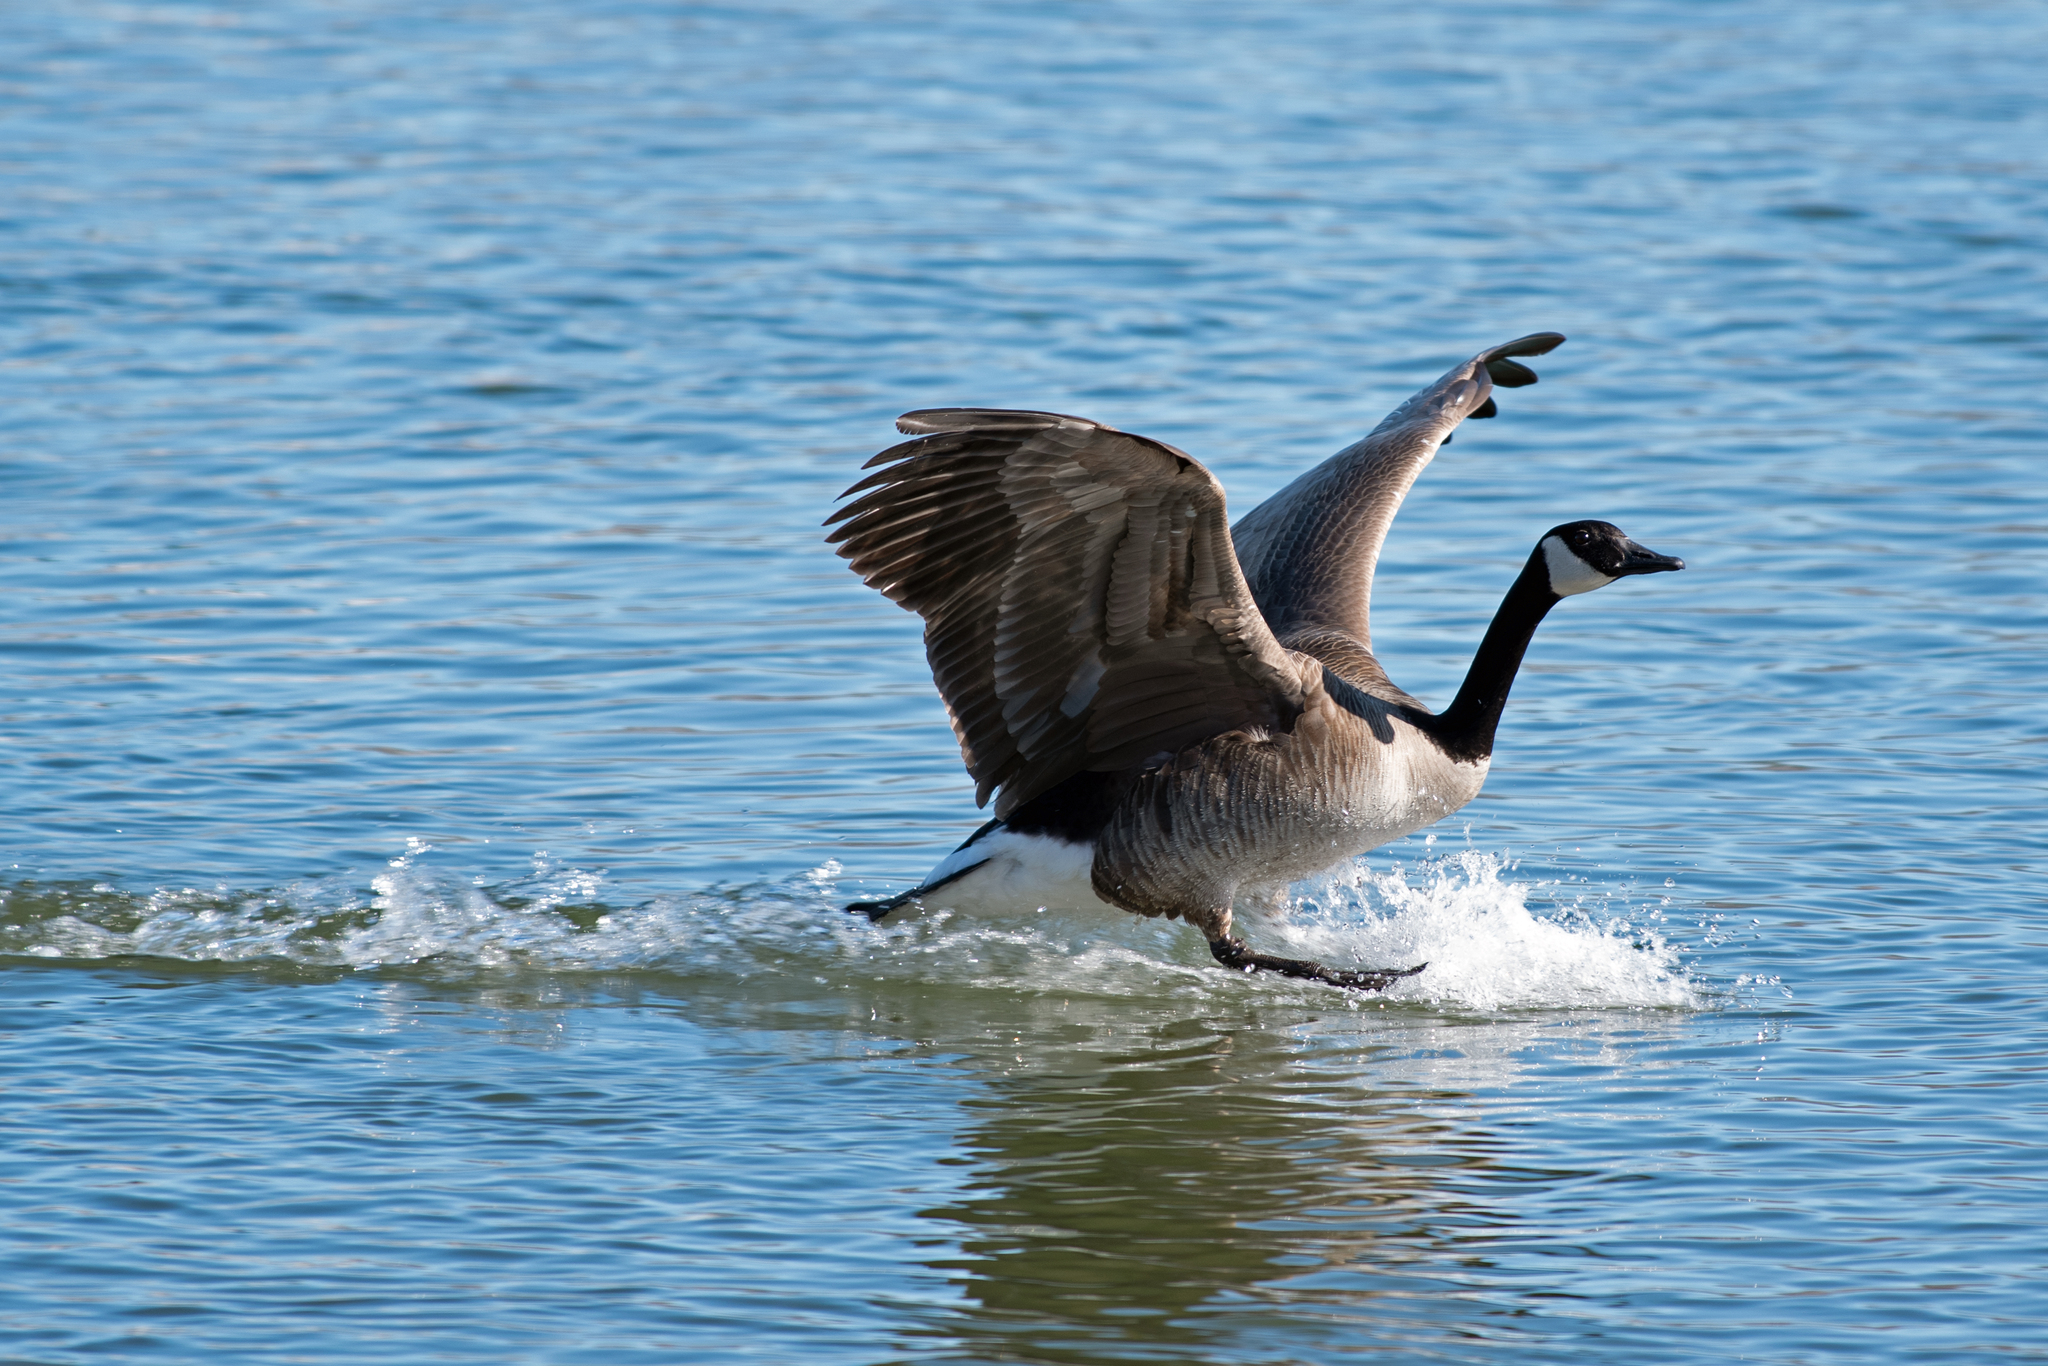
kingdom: Animalia
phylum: Chordata
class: Aves
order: Anseriformes
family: Anatidae
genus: Branta
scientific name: Branta canadensis
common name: Canada goose
